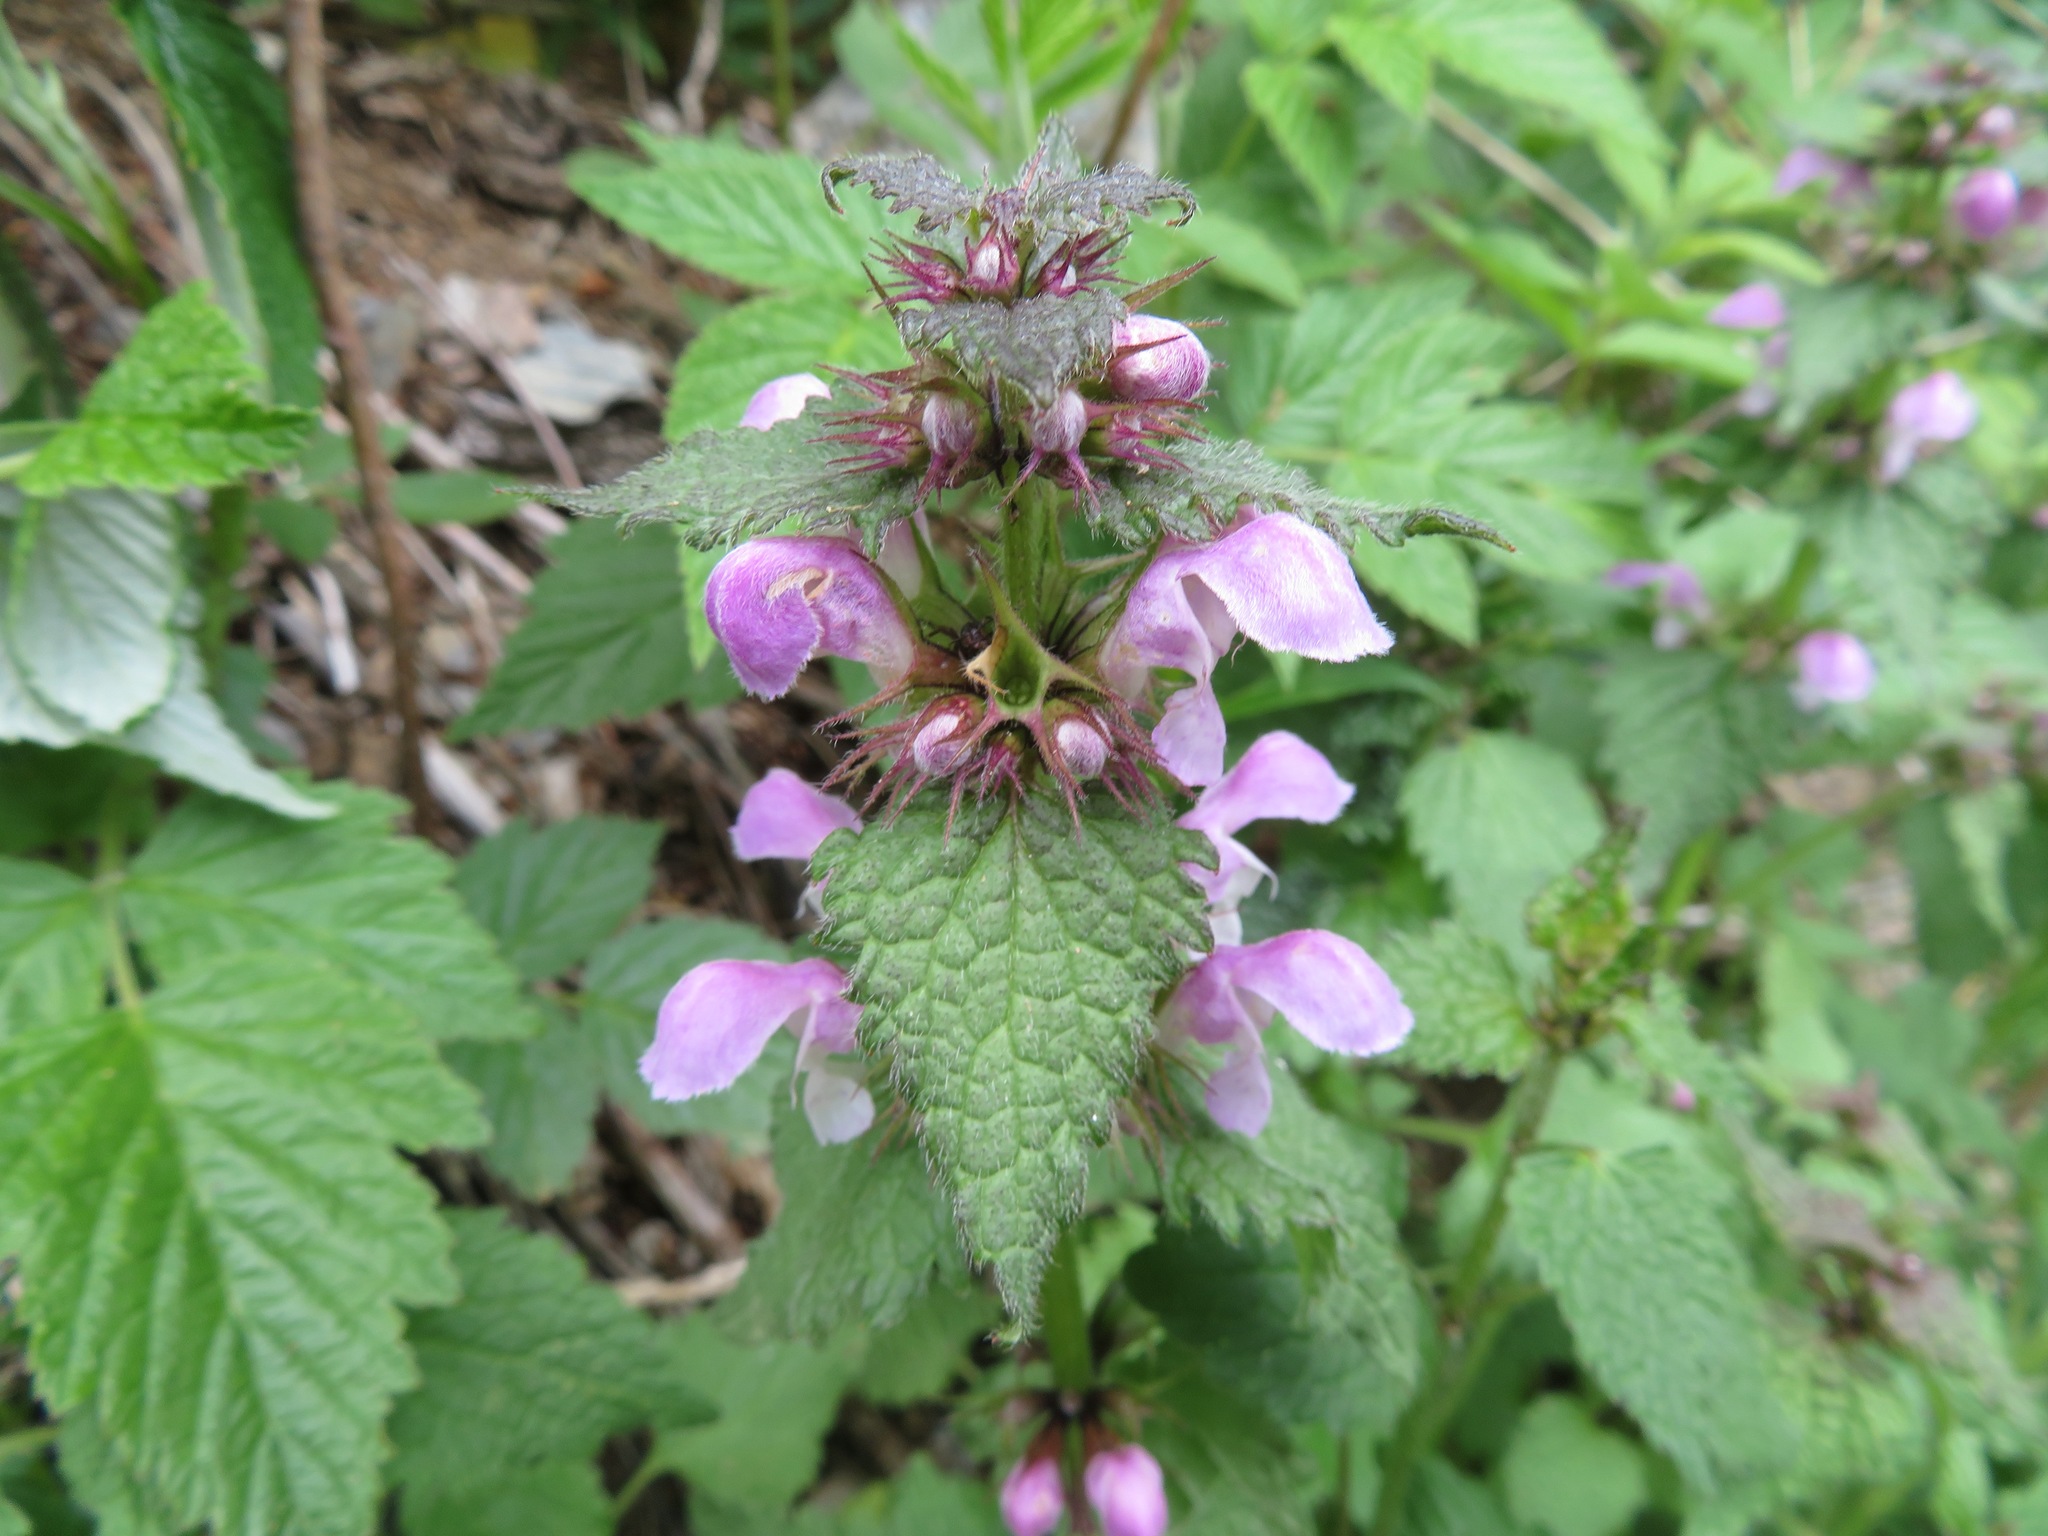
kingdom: Plantae
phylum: Tracheophyta
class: Magnoliopsida
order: Lamiales
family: Lamiaceae
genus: Lamium
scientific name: Lamium maculatum
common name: Spotted dead-nettle
